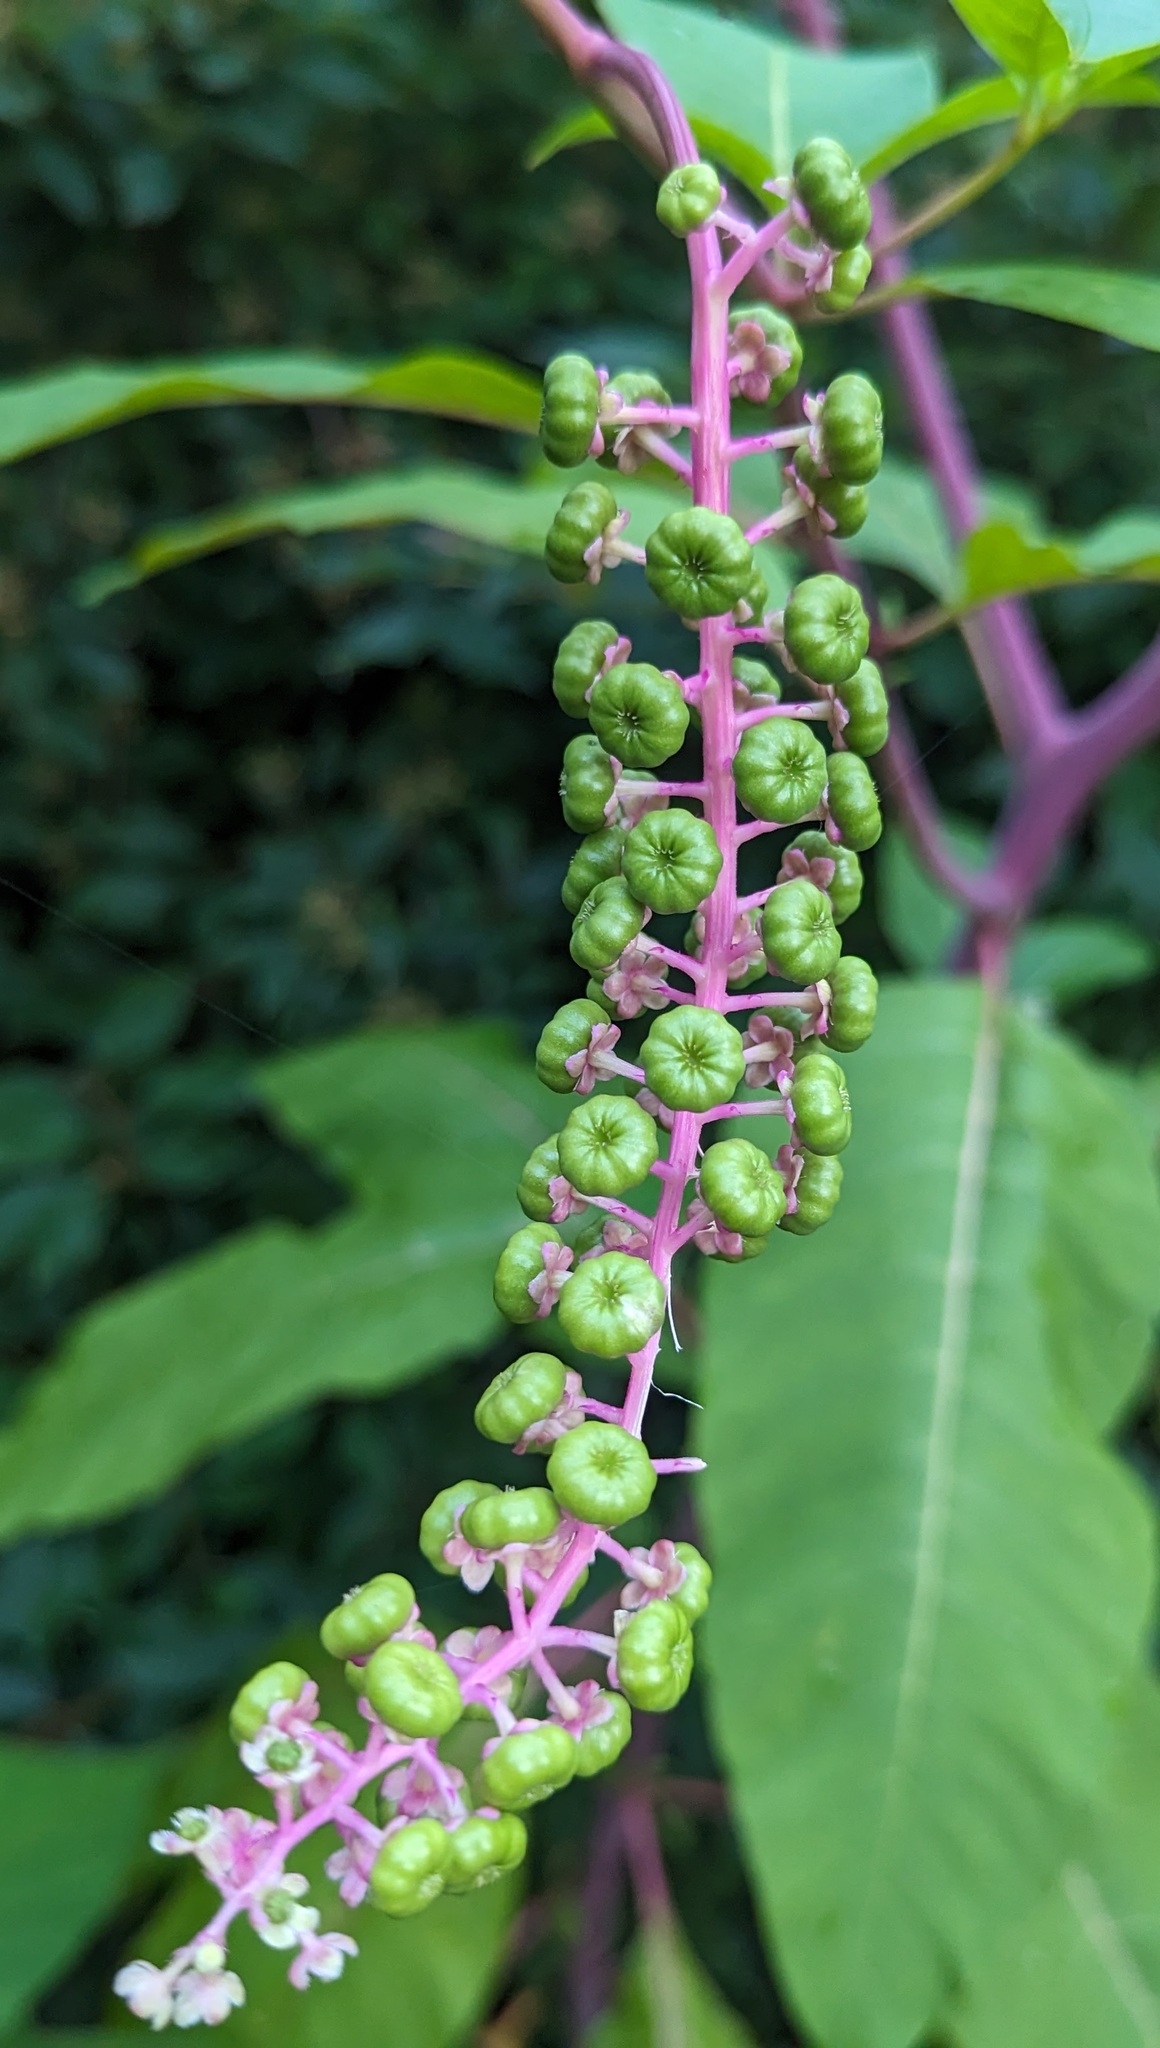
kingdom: Plantae
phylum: Tracheophyta
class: Magnoliopsida
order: Caryophyllales
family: Phytolaccaceae
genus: Phytolacca
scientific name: Phytolacca americana
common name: American pokeweed
